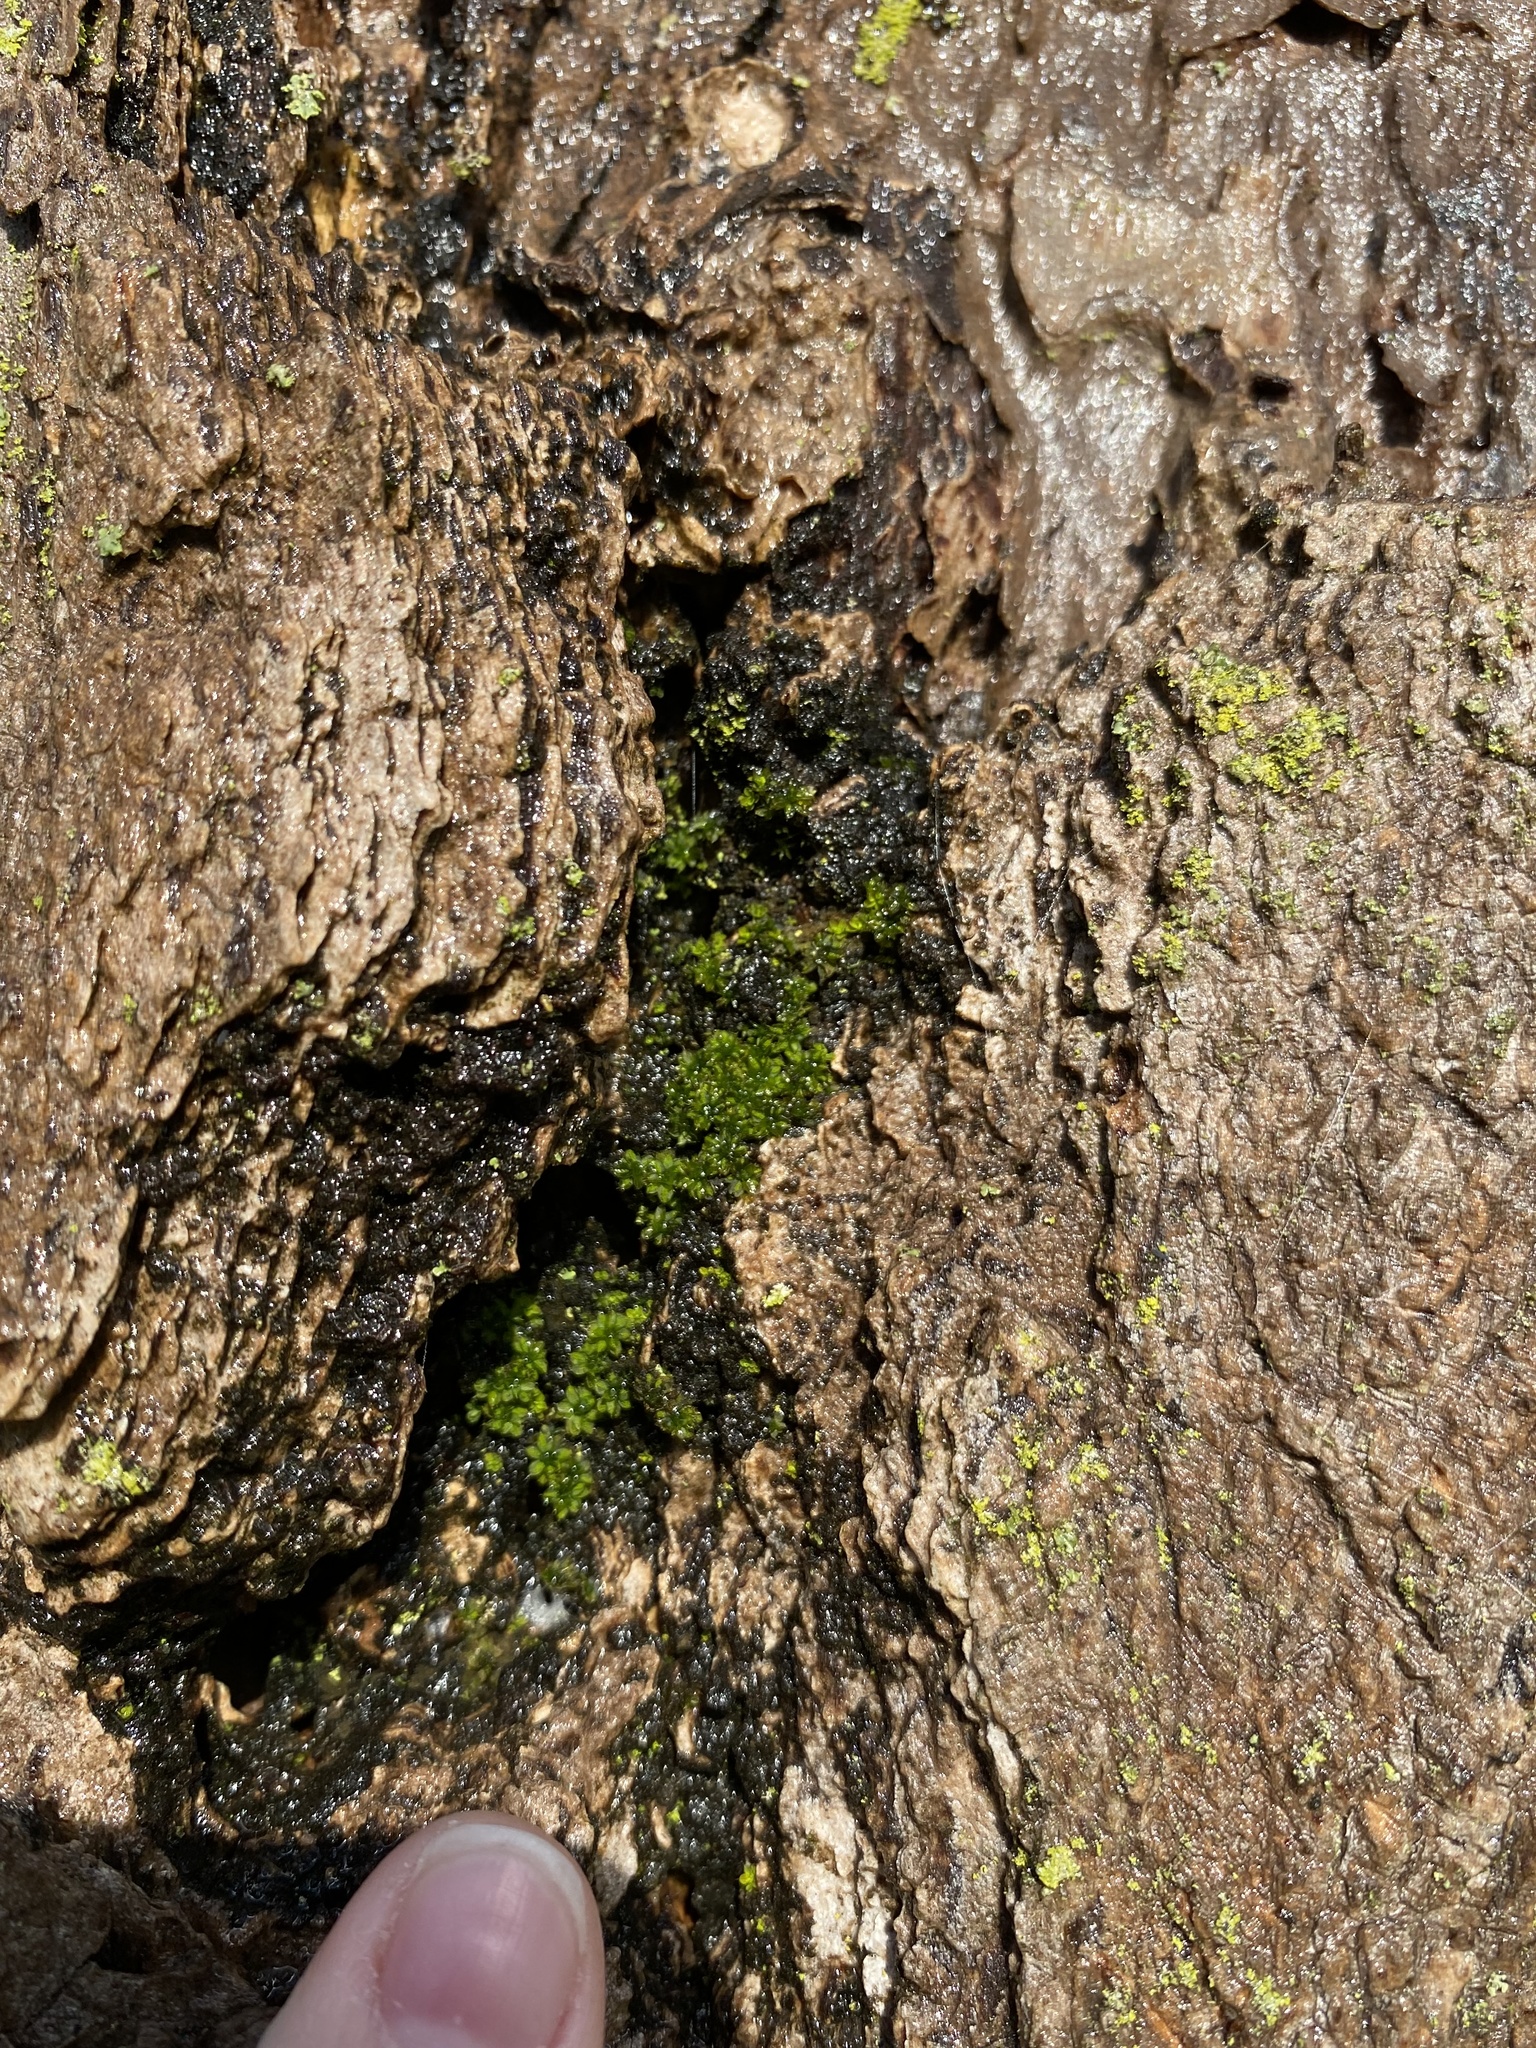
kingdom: Plantae
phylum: Bryophyta
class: Bryopsida
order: Pottiales
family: Pottiaceae
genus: Syntrichia
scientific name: Syntrichia papillosa
